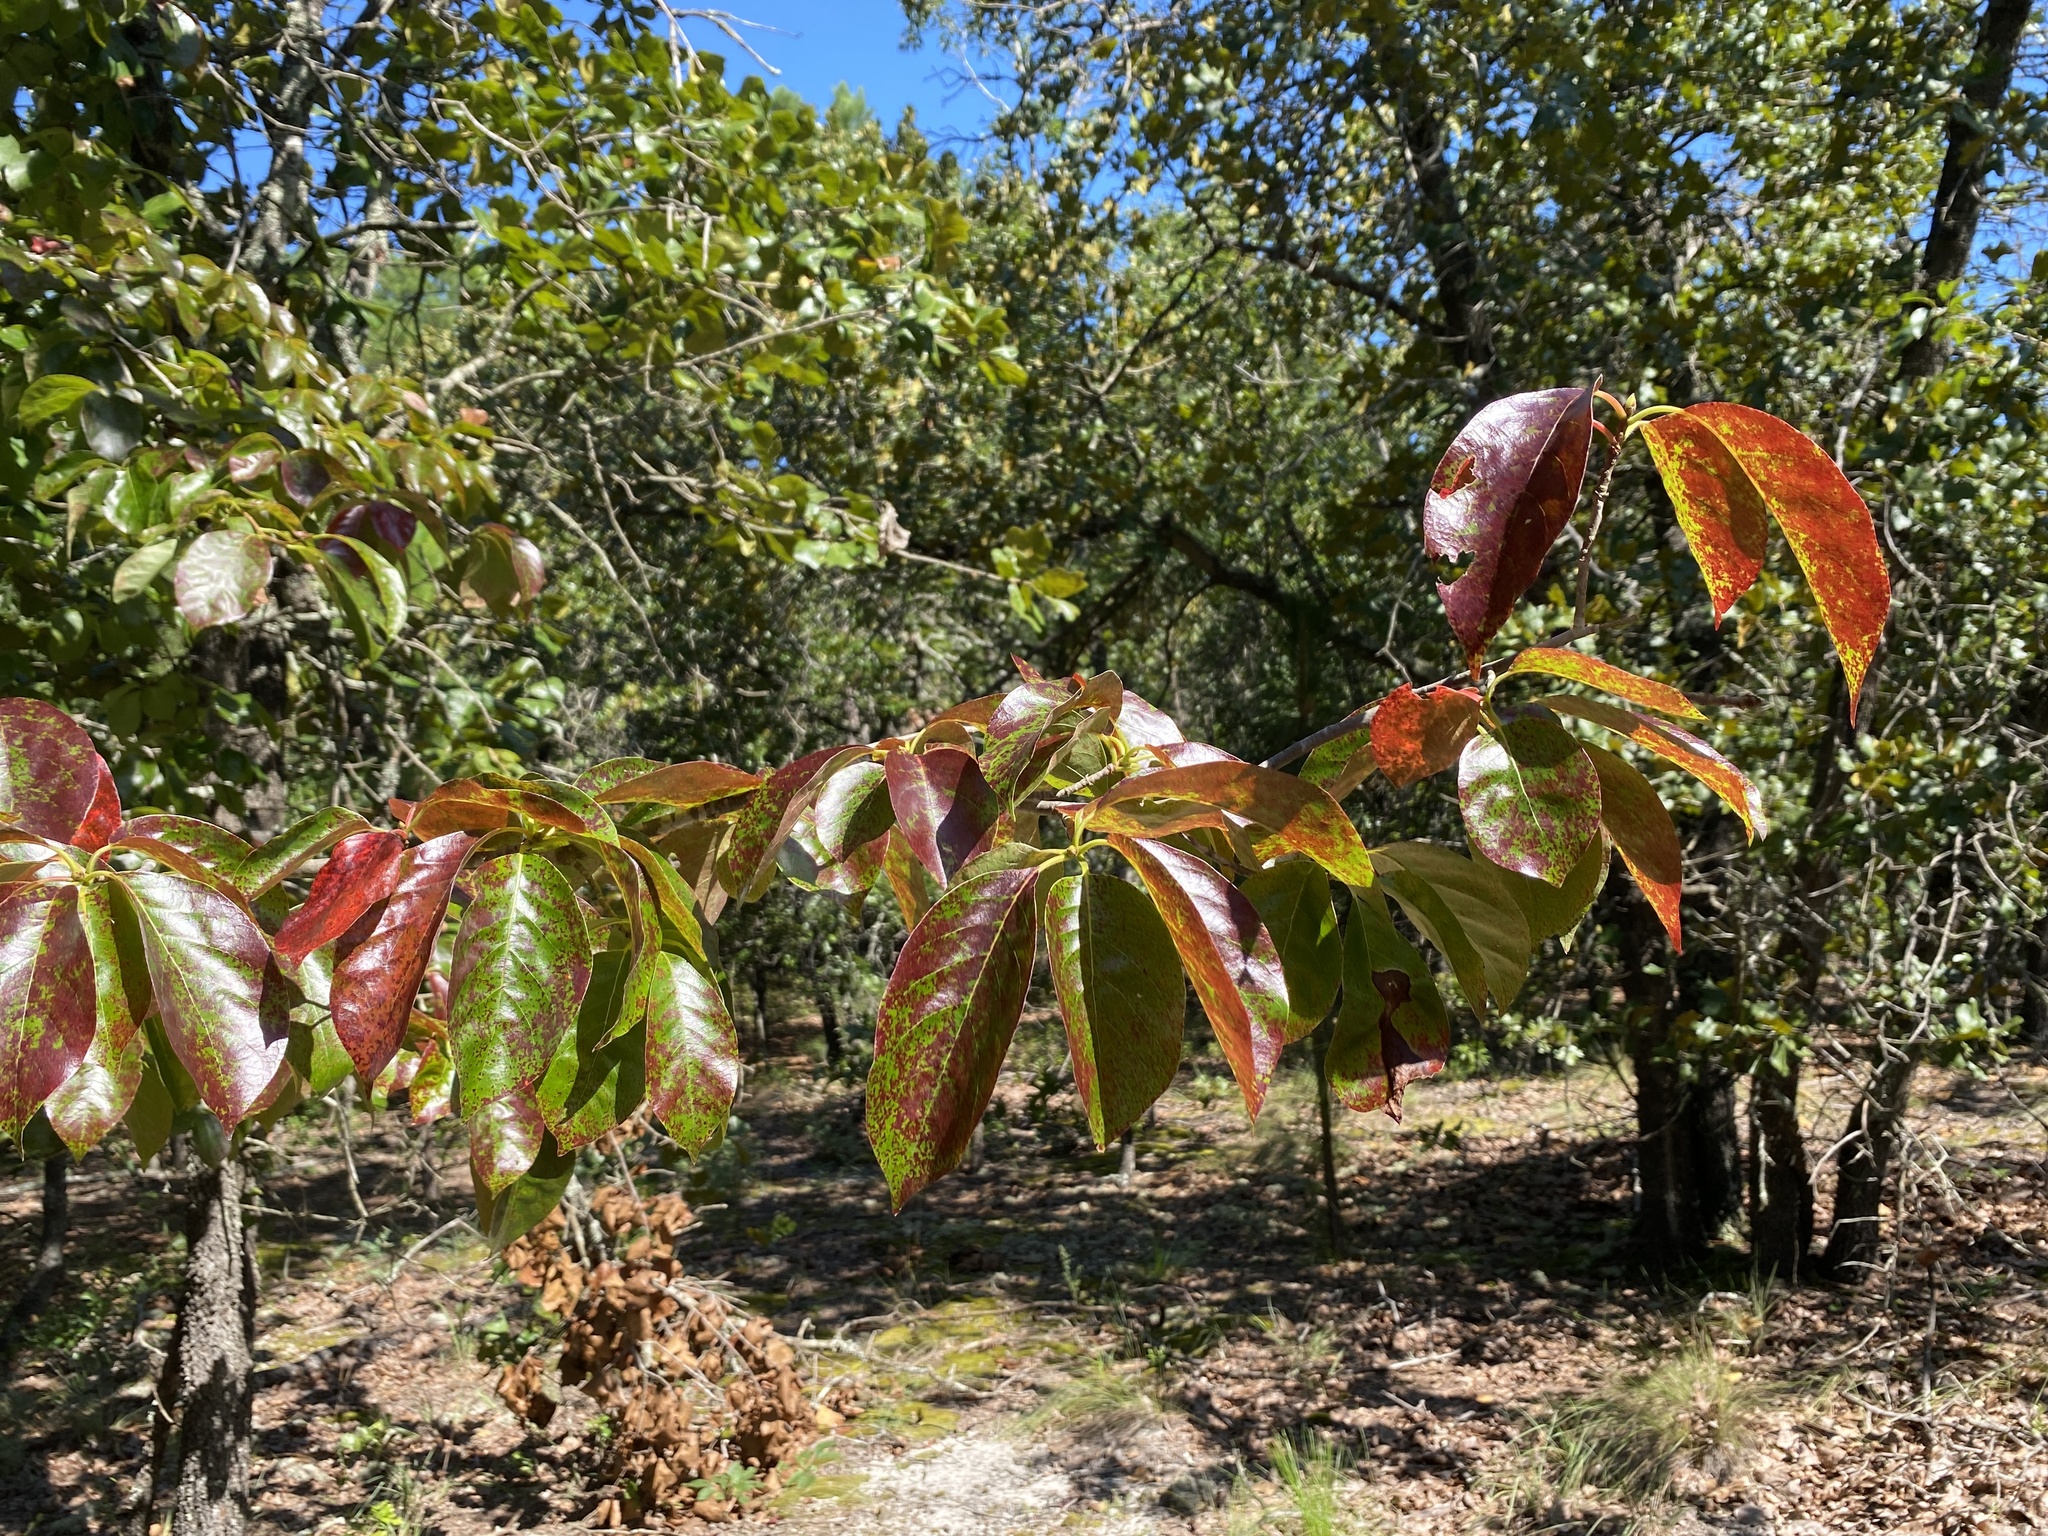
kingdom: Plantae
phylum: Tracheophyta
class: Magnoliopsida
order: Cornales
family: Nyssaceae
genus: Nyssa
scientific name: Nyssa sylvatica
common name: Black tupelo
